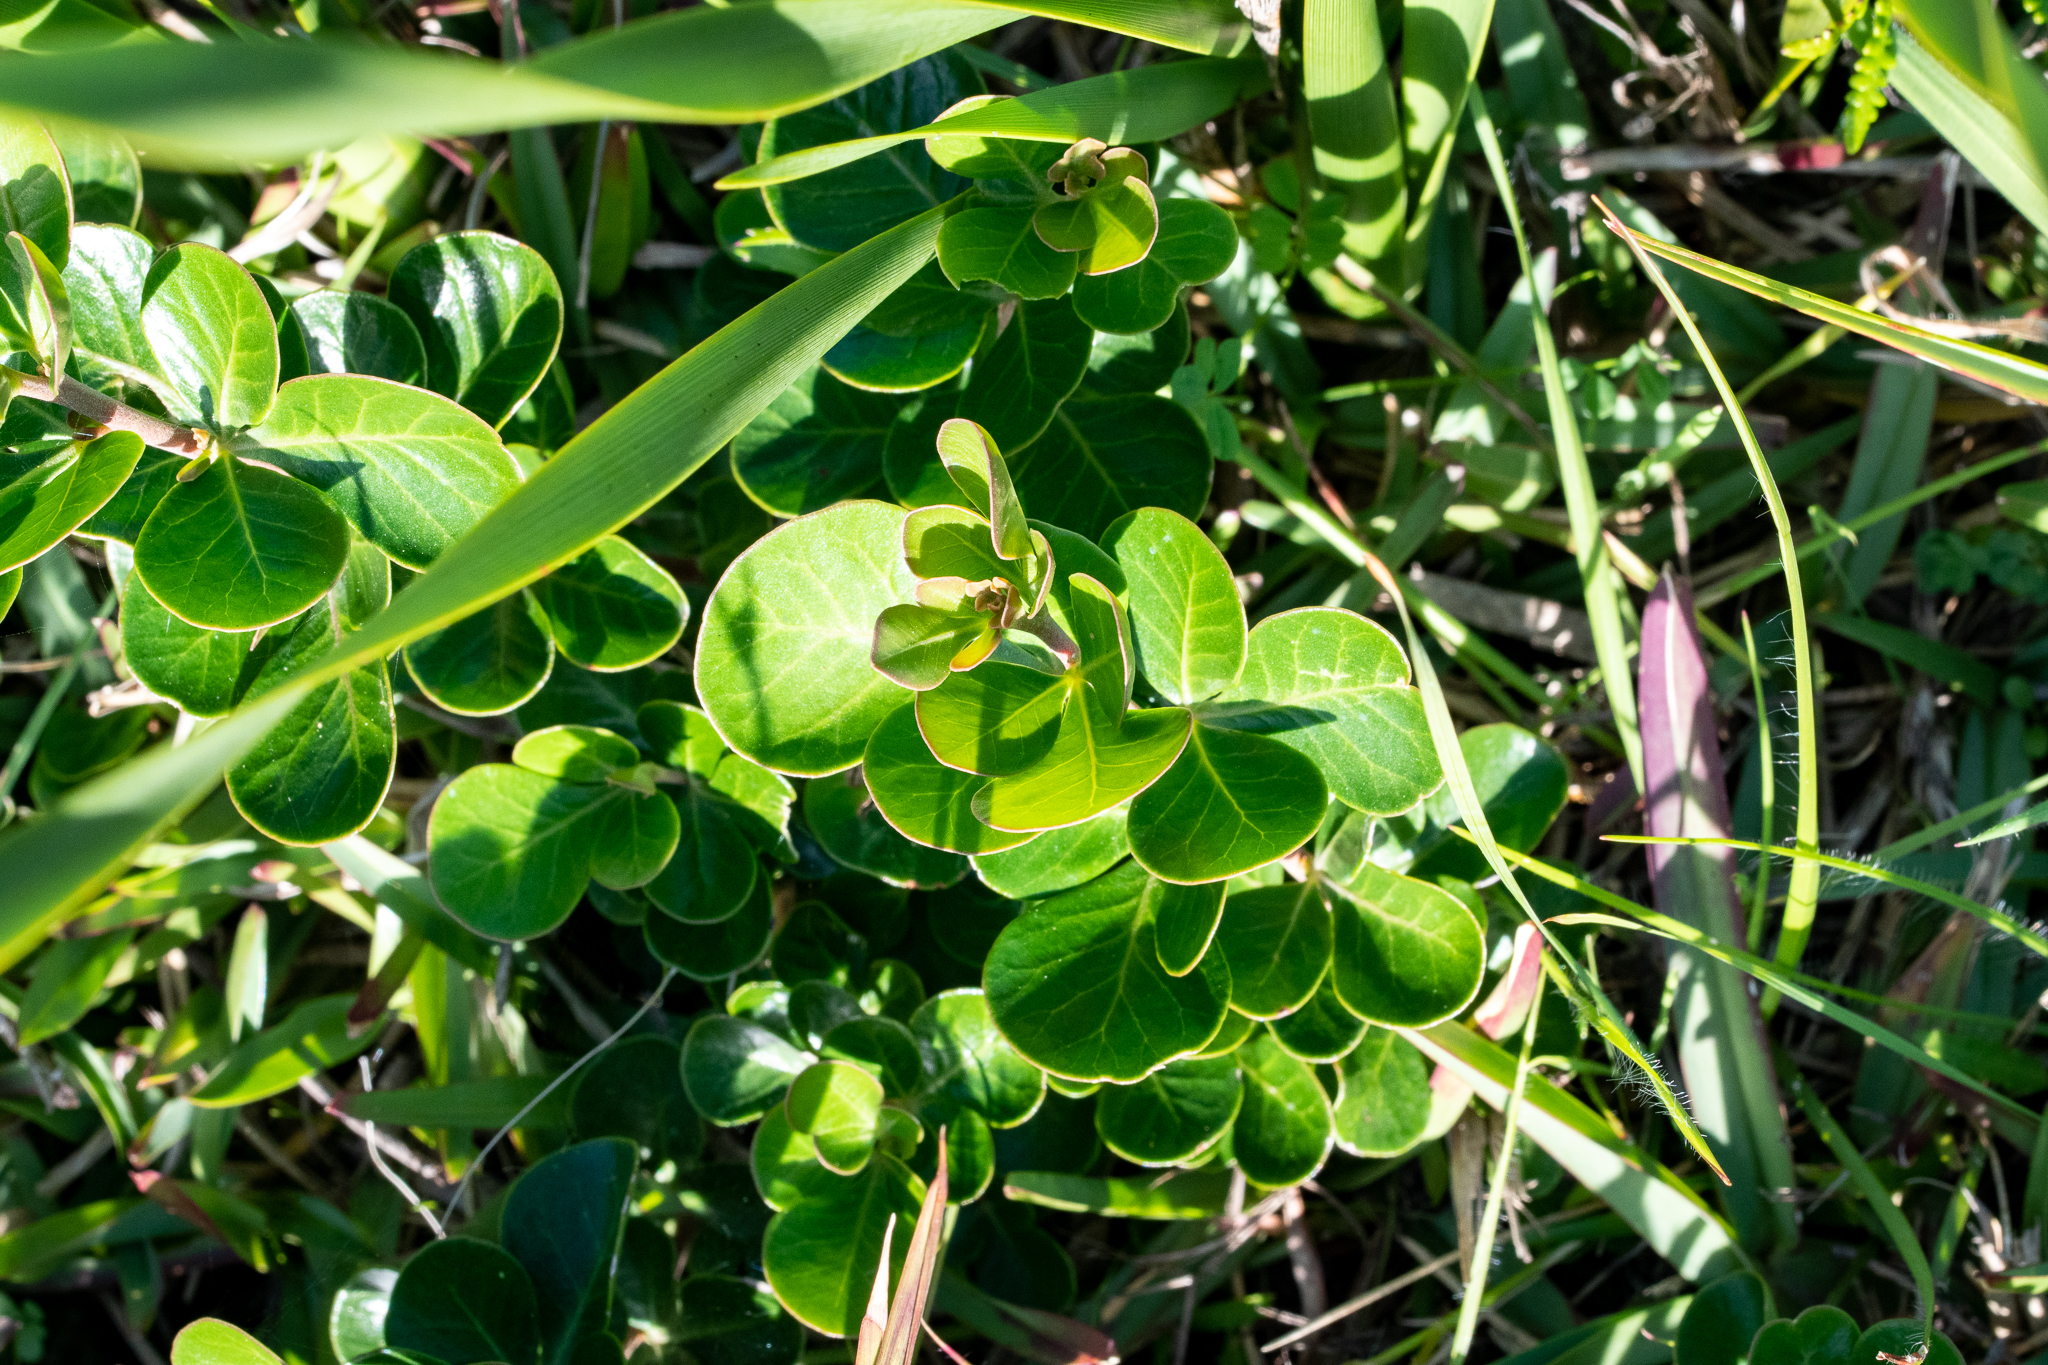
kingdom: Plantae
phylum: Tracheophyta
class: Magnoliopsida
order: Sapindales
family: Anacardiaceae
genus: Searsia
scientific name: Searsia lucida
